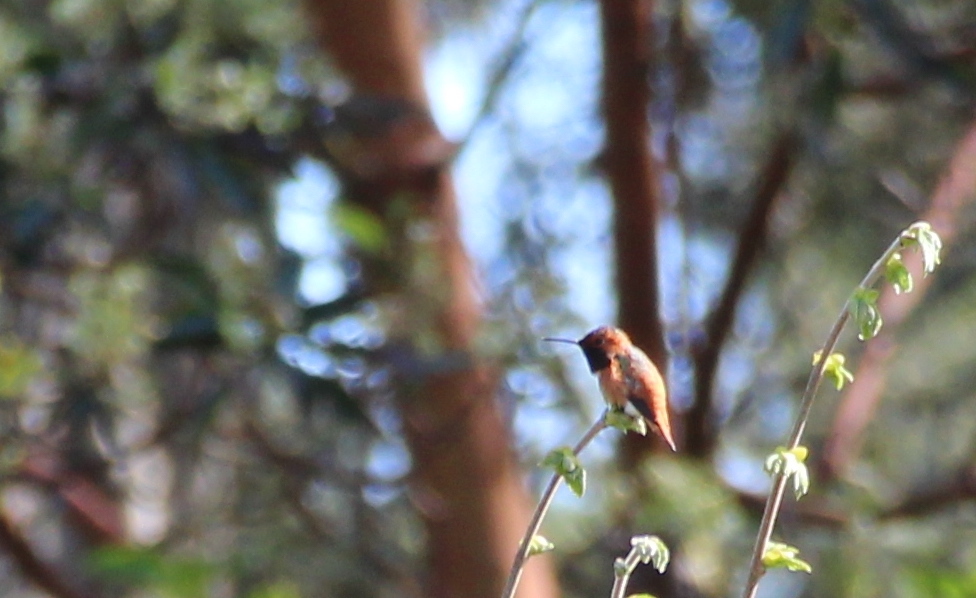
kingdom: Animalia
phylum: Chordata
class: Aves
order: Apodiformes
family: Trochilidae
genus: Selasphorus
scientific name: Selasphorus sasin
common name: Allen's hummingbird
